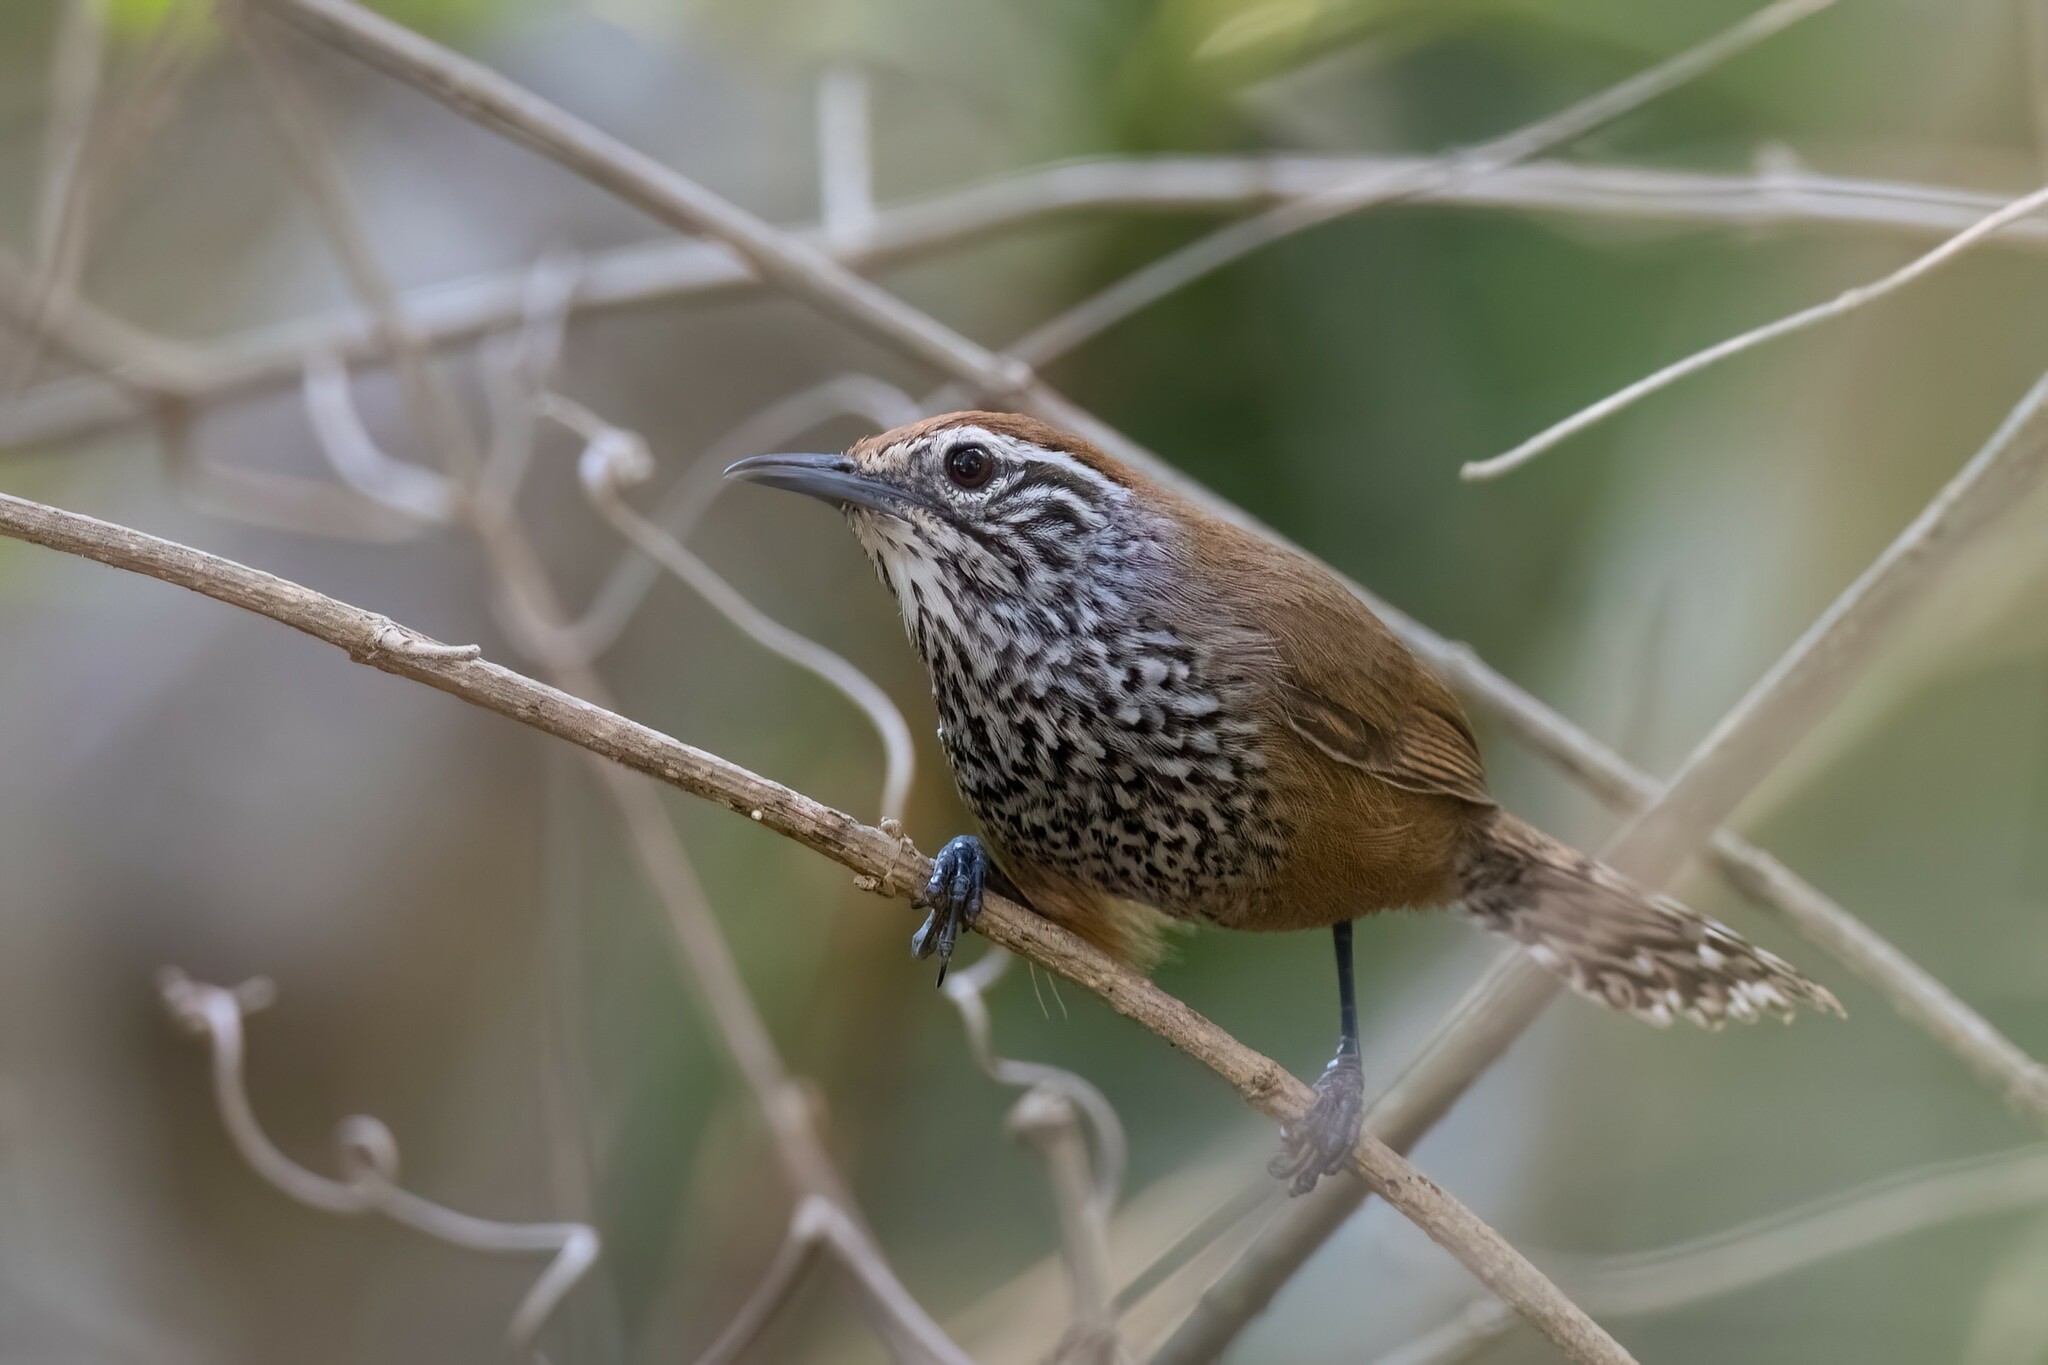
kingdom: Animalia
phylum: Chordata
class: Aves
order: Passeriformes
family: Troglodytidae
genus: Pheugopedius
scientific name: Pheugopedius maculipectus
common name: Spot-breasted wren
